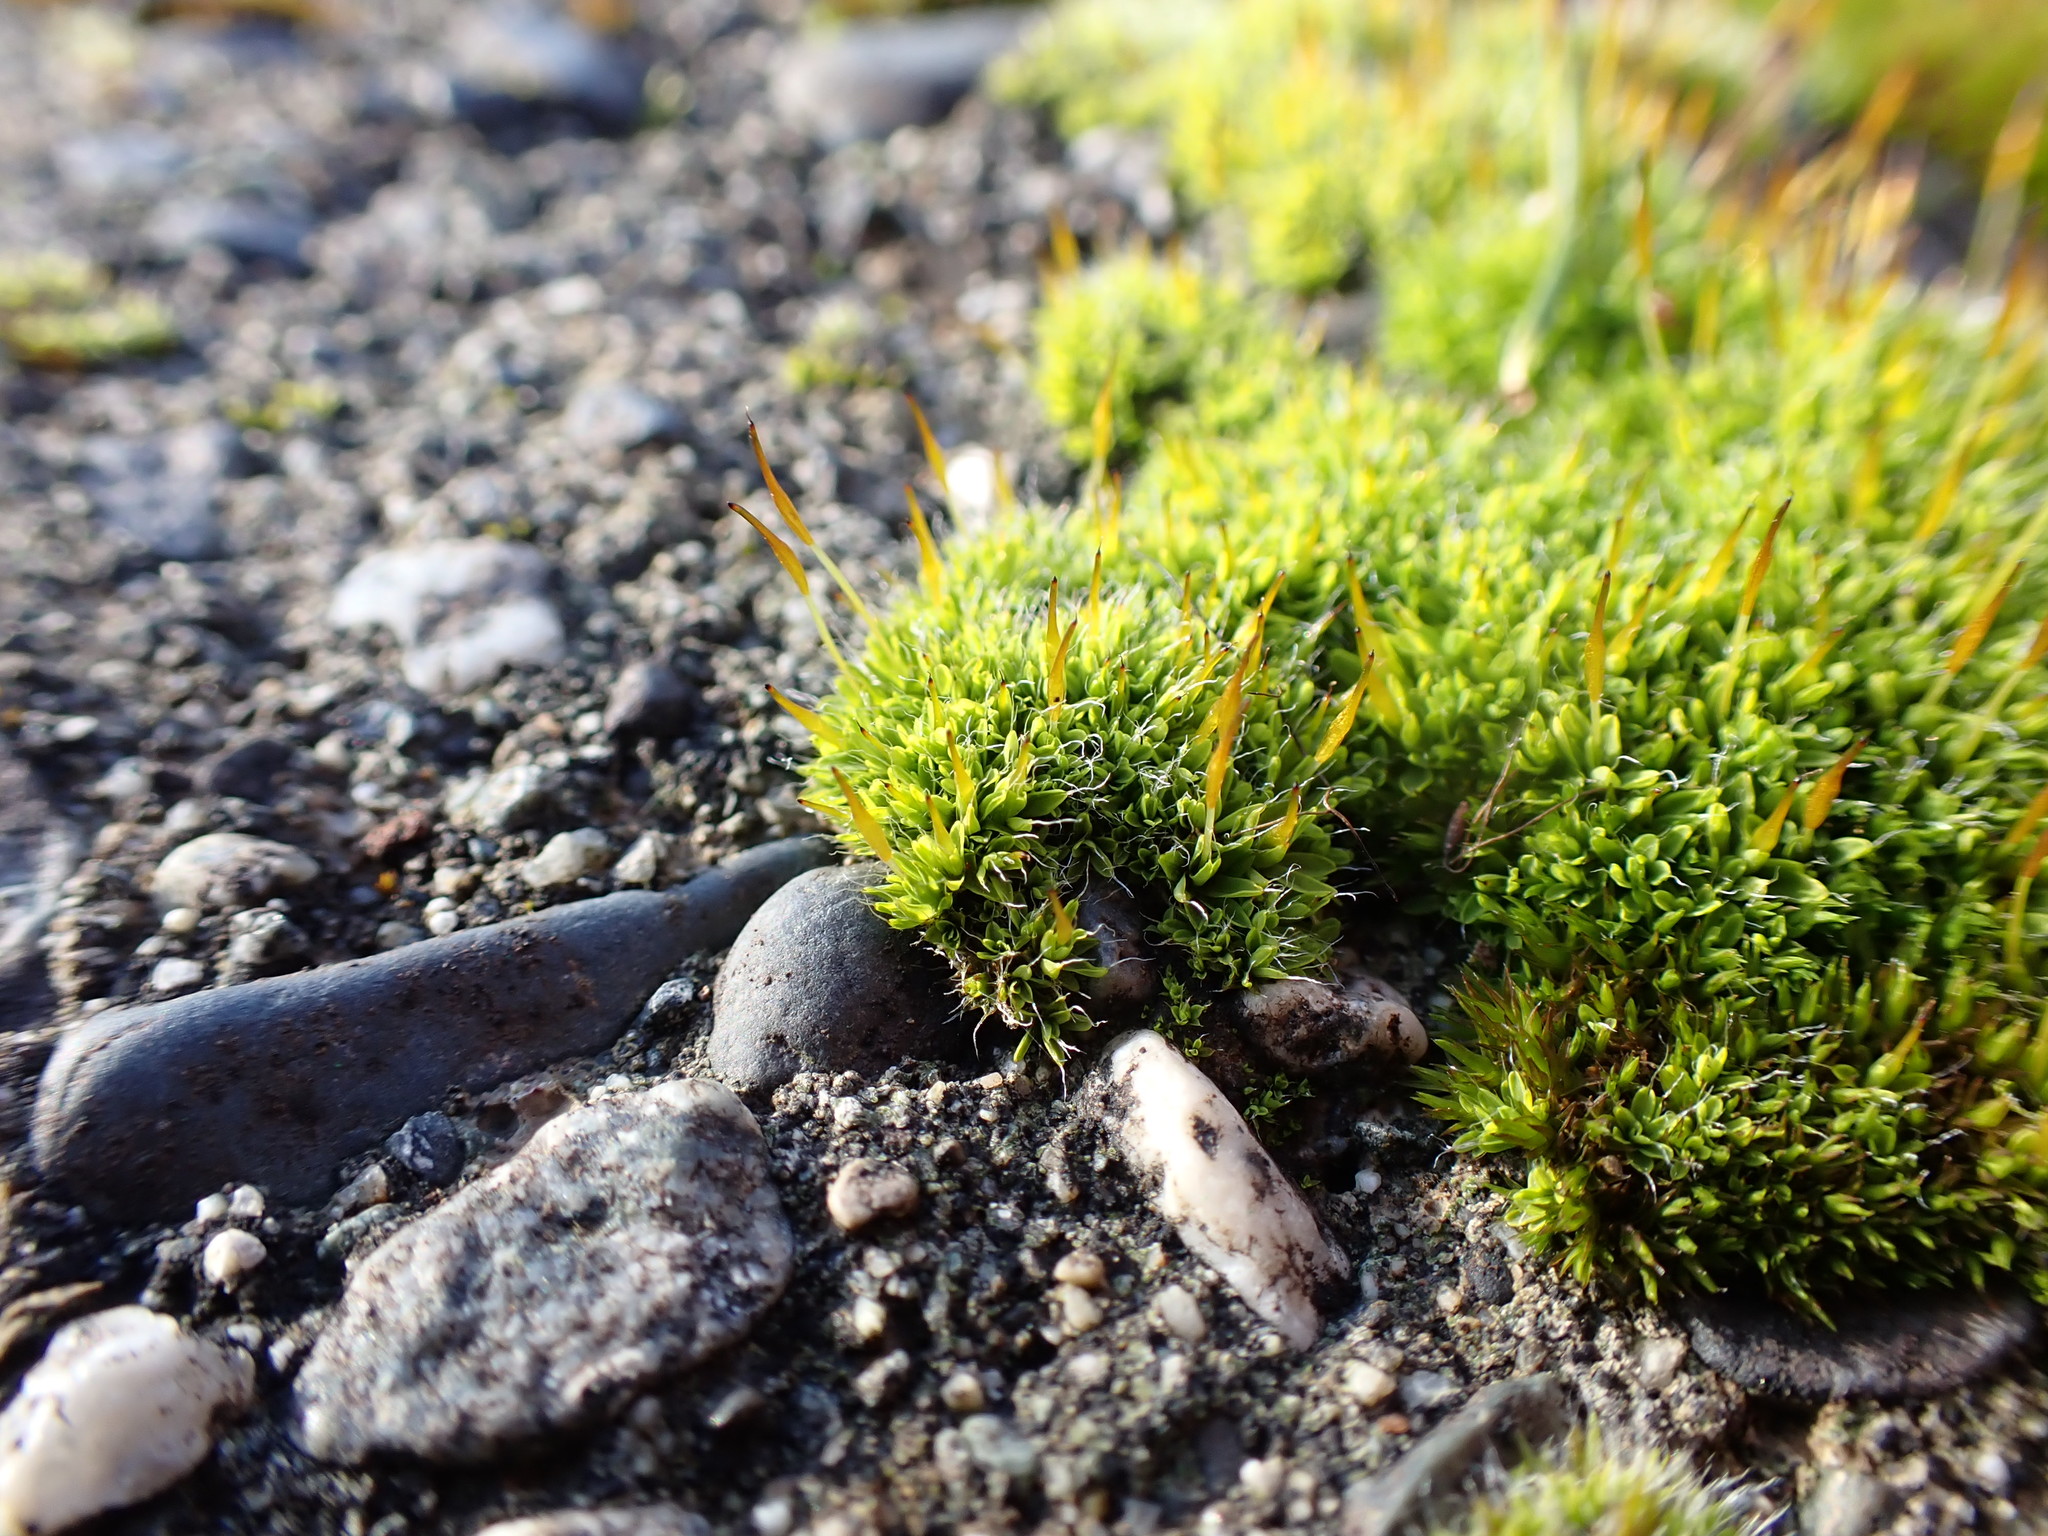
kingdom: Plantae
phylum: Bryophyta
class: Bryopsida
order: Pottiales
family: Pottiaceae
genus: Tortula
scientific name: Tortula muralis
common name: Wall screw-moss
